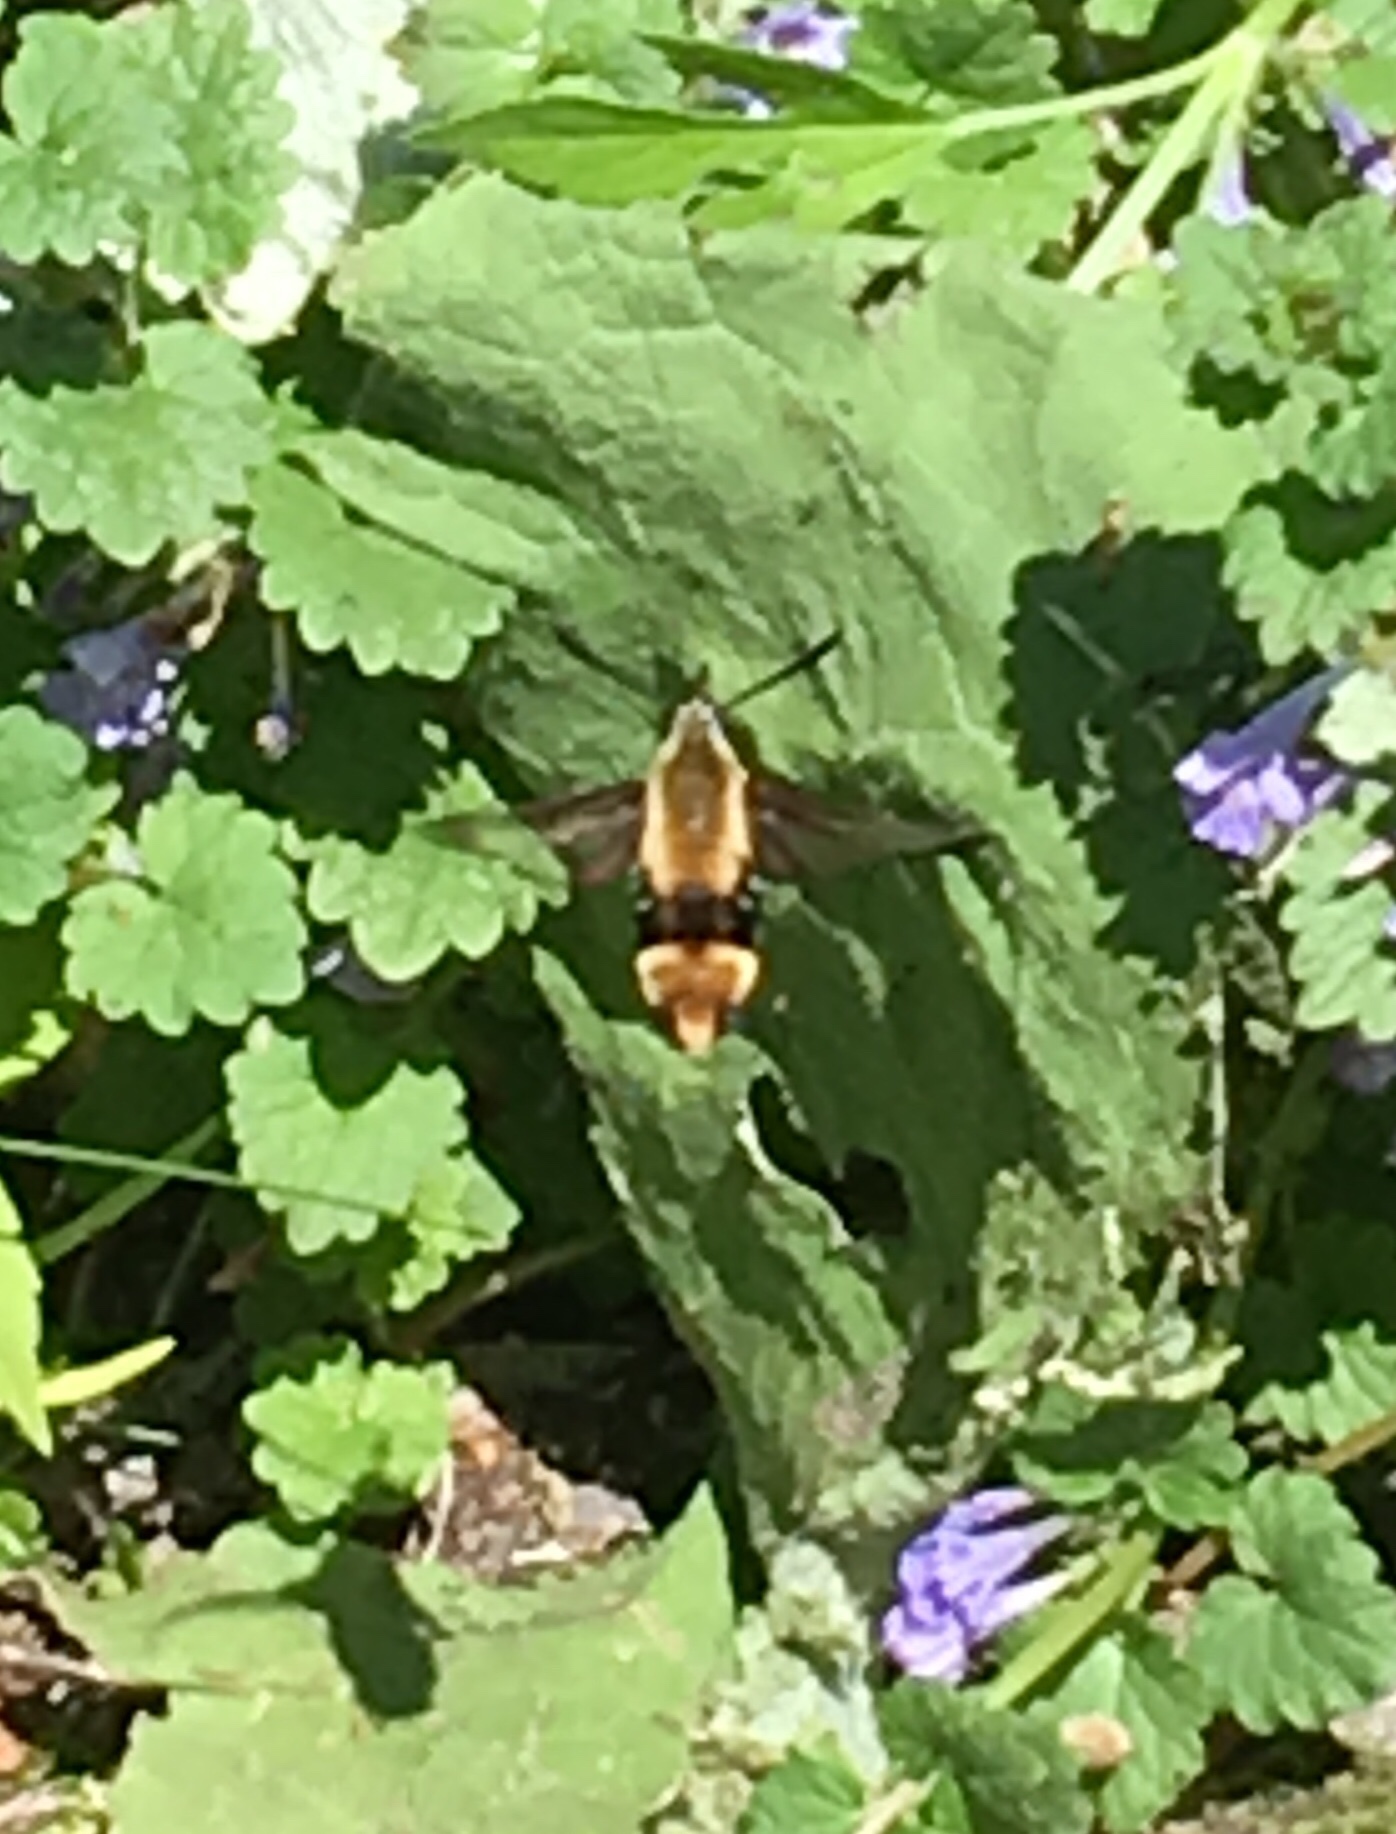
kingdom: Animalia
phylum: Arthropoda
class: Insecta
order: Lepidoptera
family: Sphingidae
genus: Hemaris
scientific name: Hemaris diffinis
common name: Bumblebee moth
